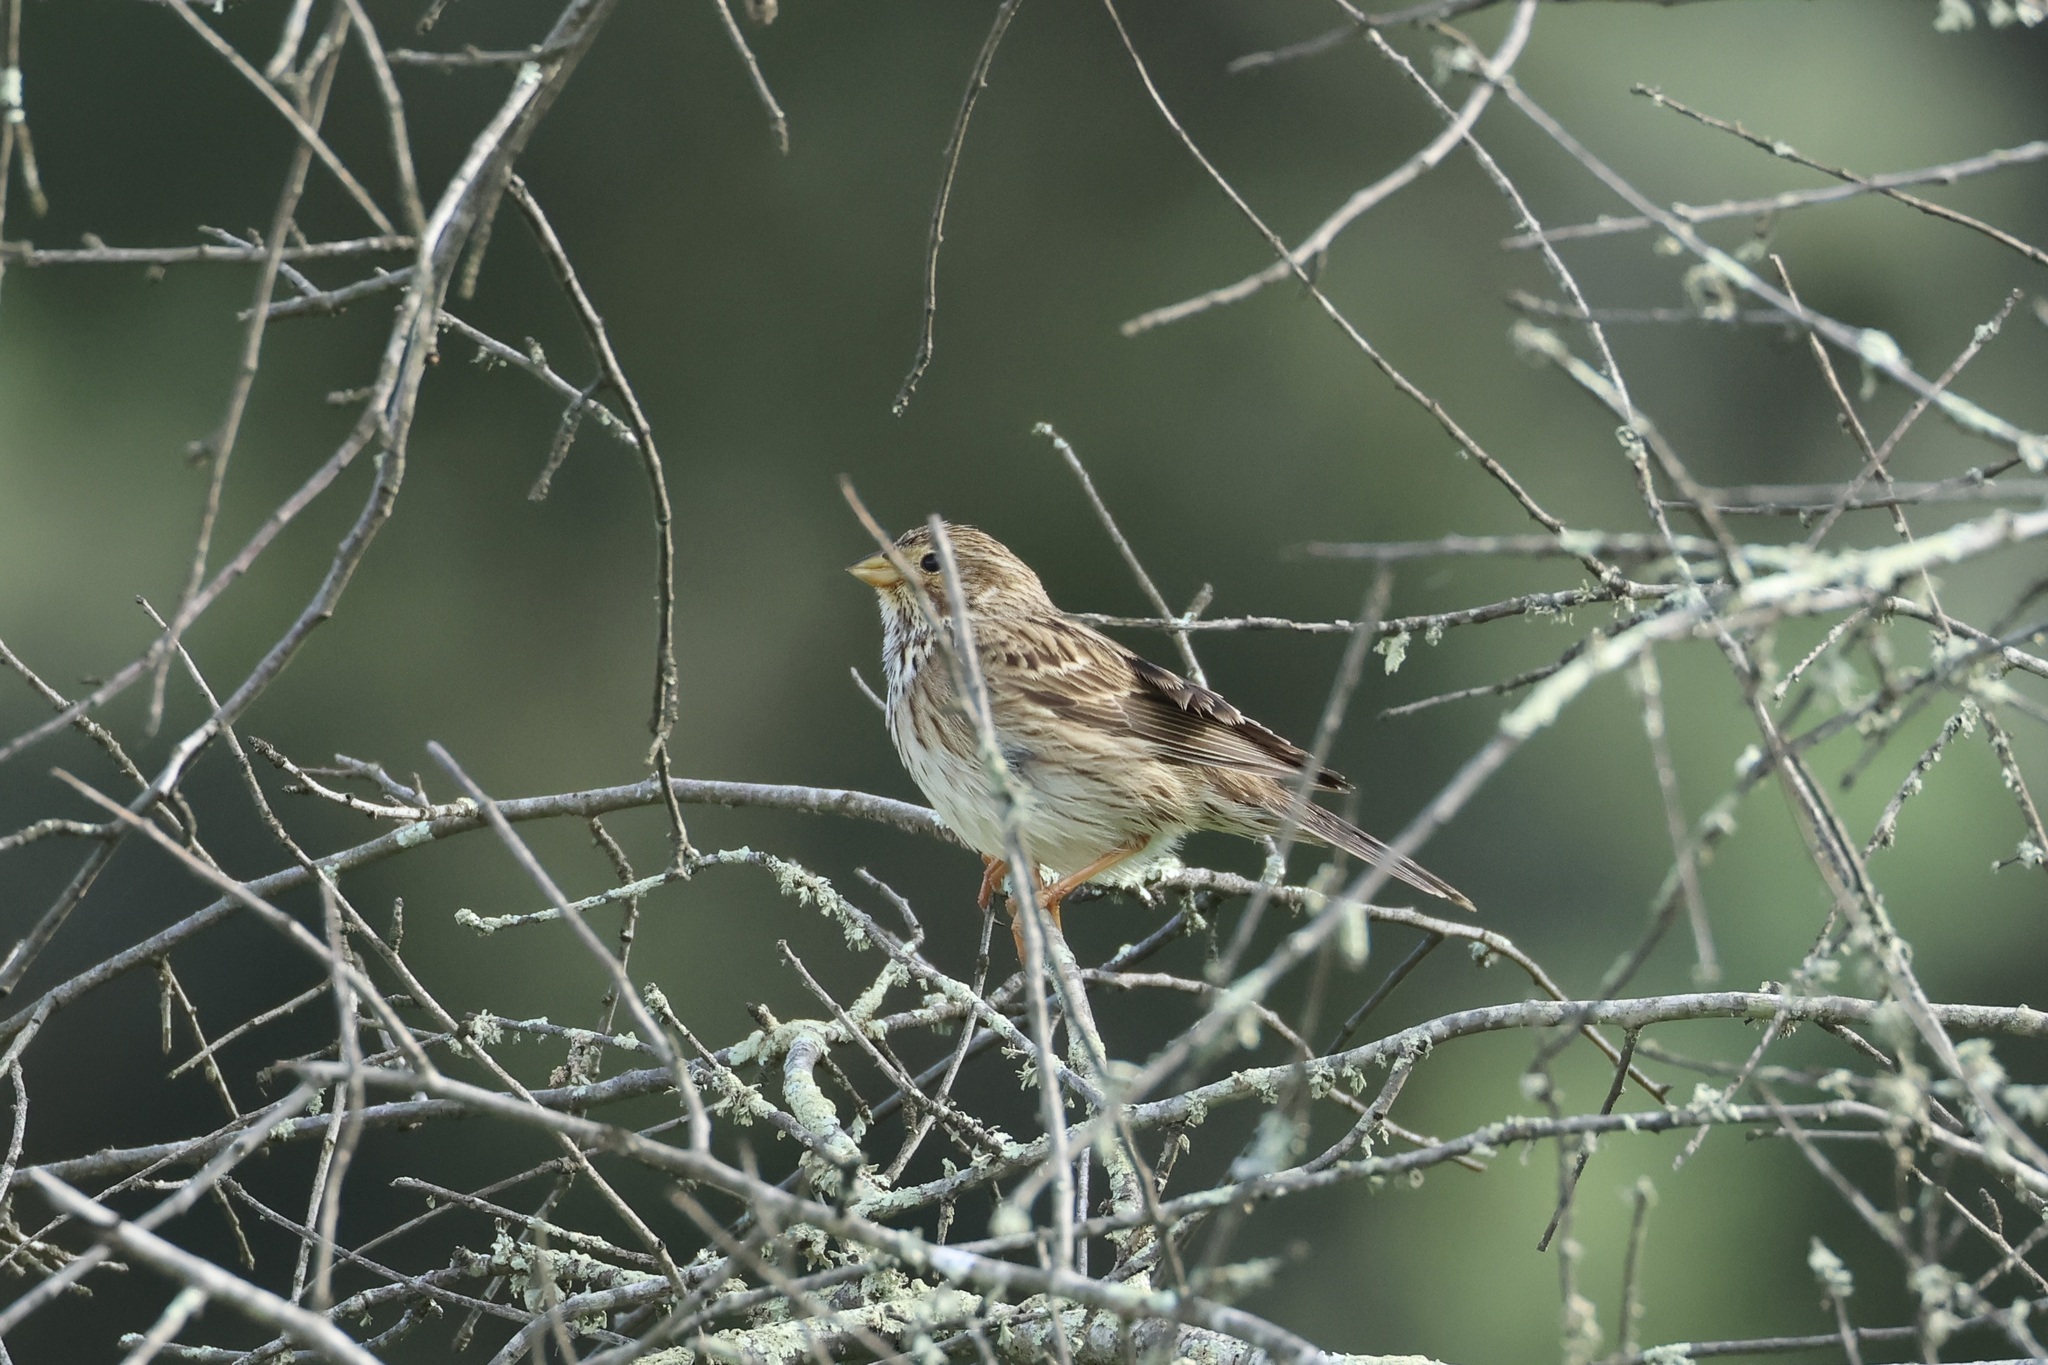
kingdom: Animalia
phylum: Chordata
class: Aves
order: Passeriformes
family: Emberizidae
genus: Emberiza
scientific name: Emberiza calandra
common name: Corn bunting
